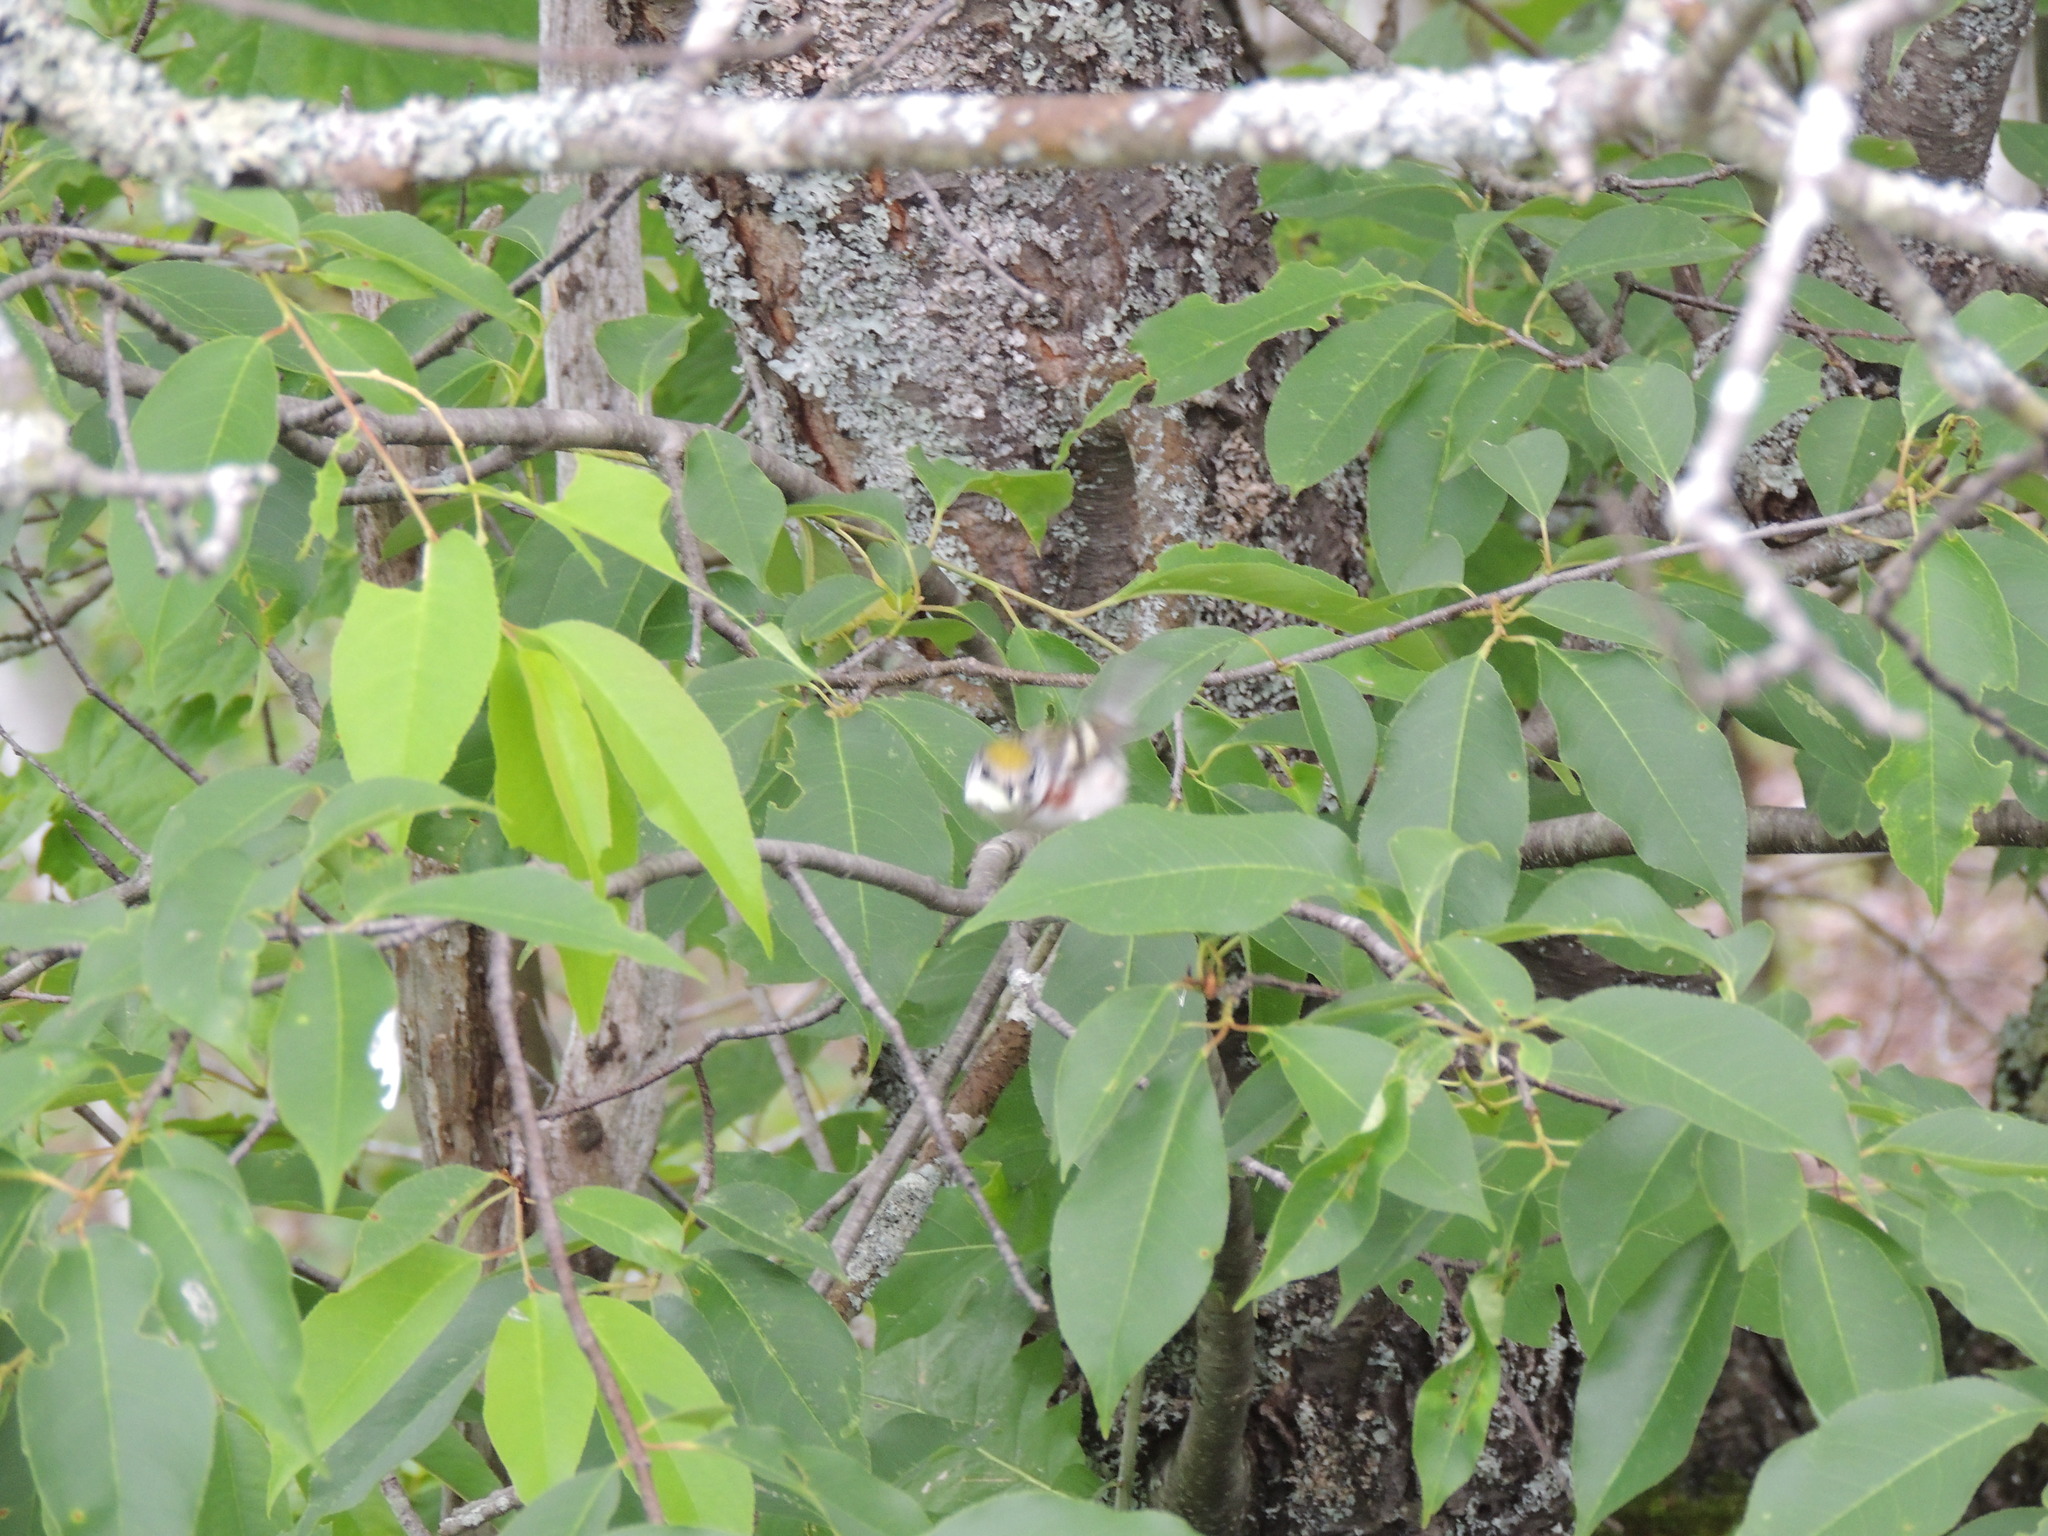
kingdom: Animalia
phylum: Chordata
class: Aves
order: Passeriformes
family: Parulidae
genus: Setophaga
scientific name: Setophaga pensylvanica
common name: Chestnut-sided warbler
